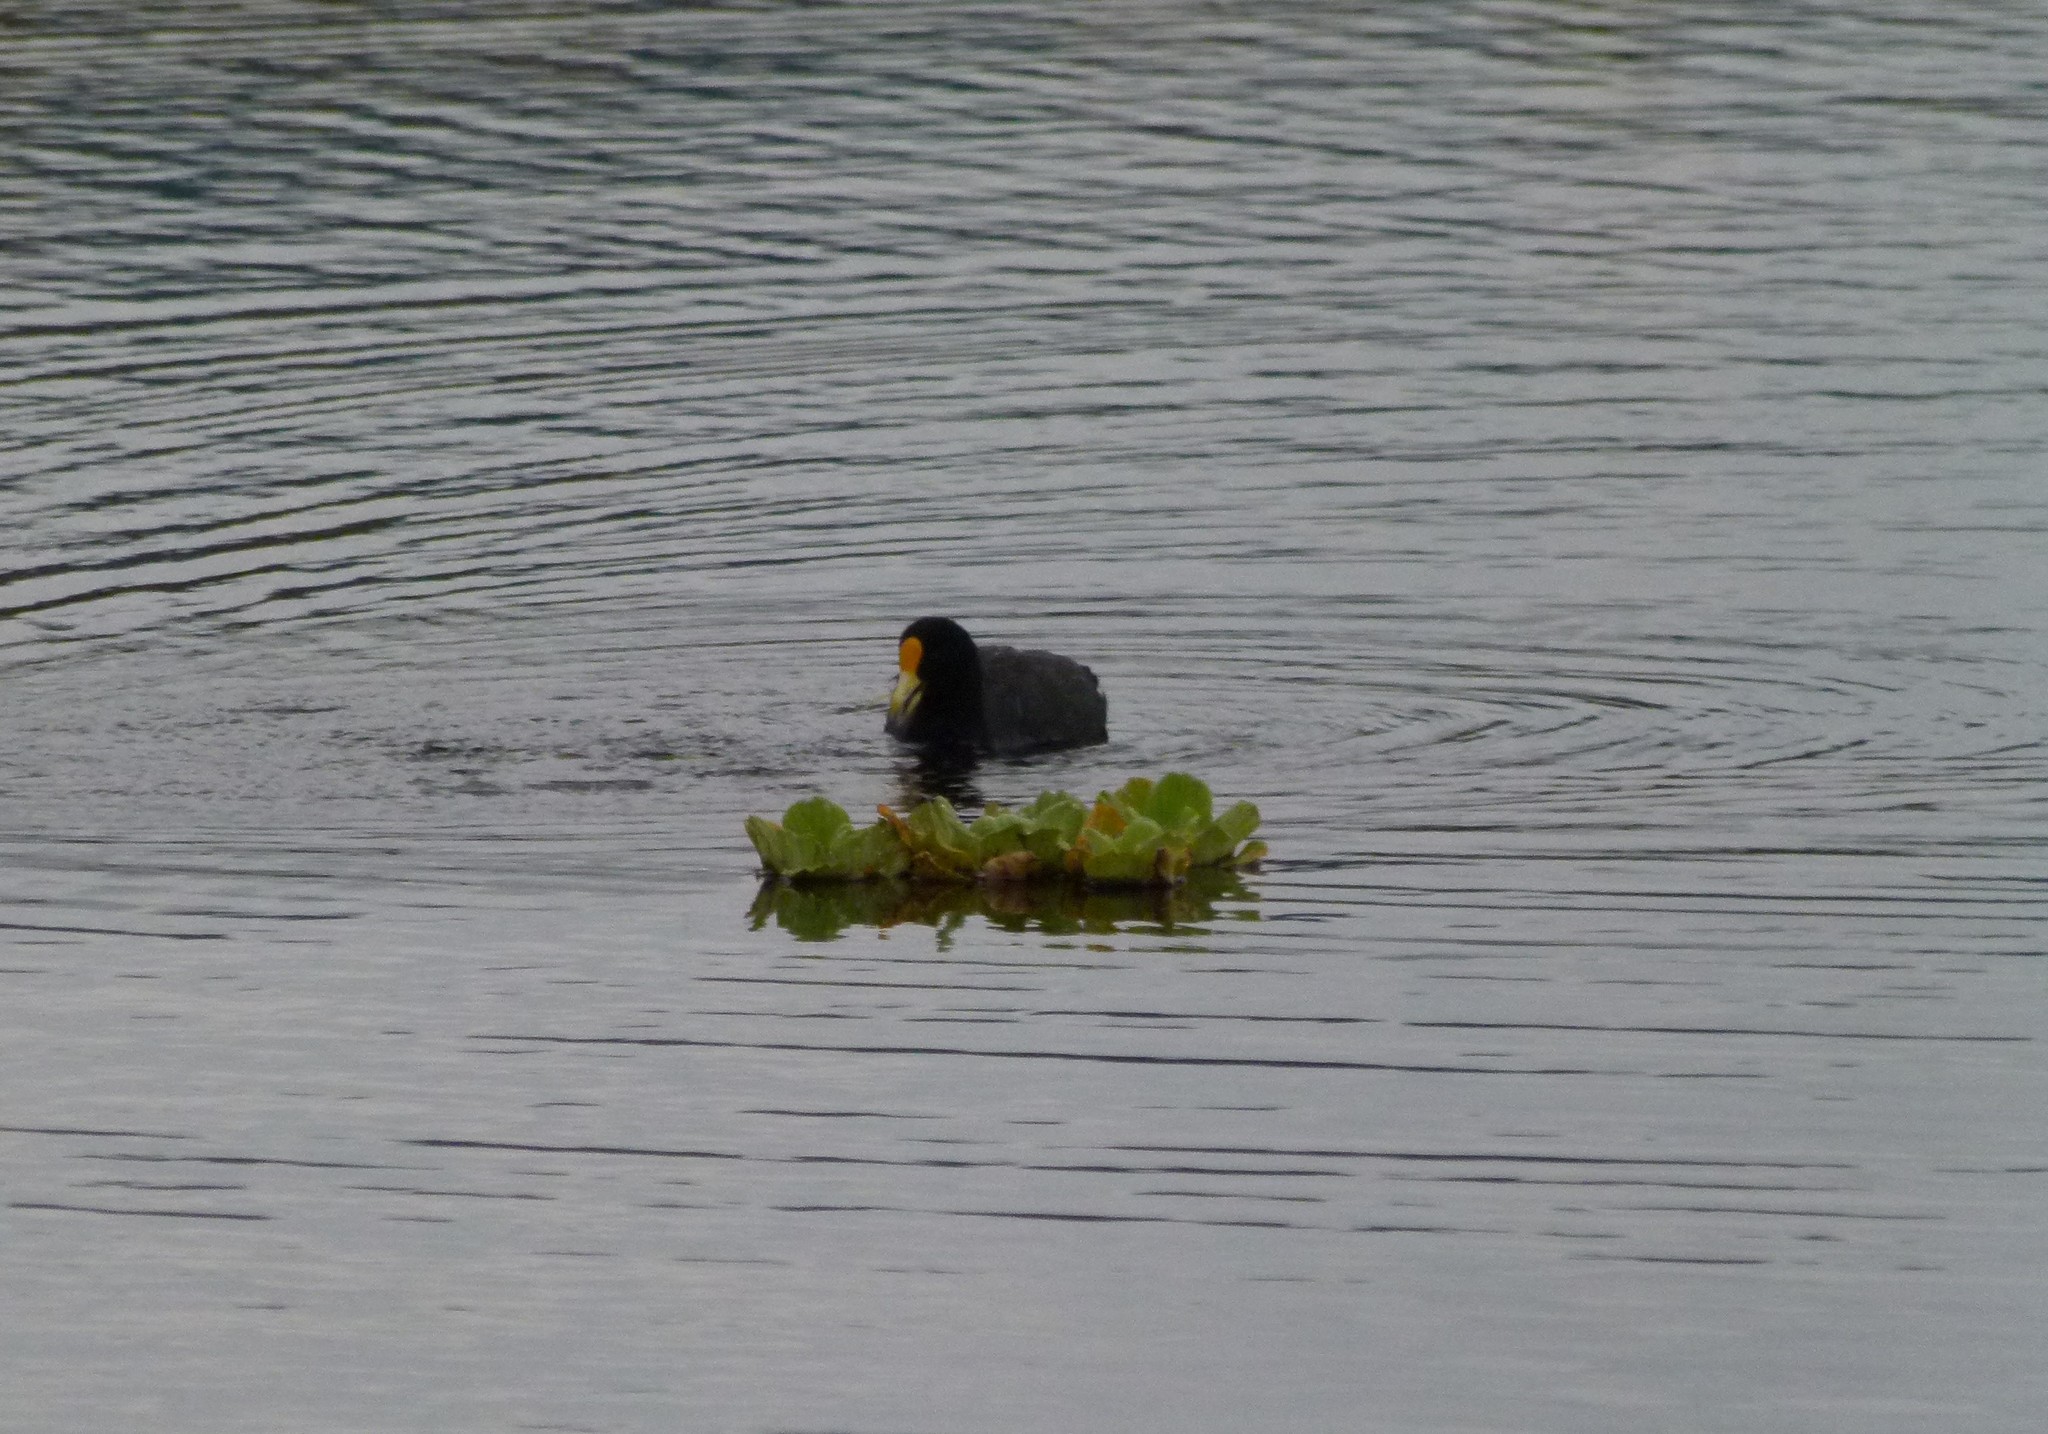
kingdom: Animalia
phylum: Chordata
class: Aves
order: Gruiformes
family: Rallidae
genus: Fulica
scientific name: Fulica leucoptera
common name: White-winged coot
